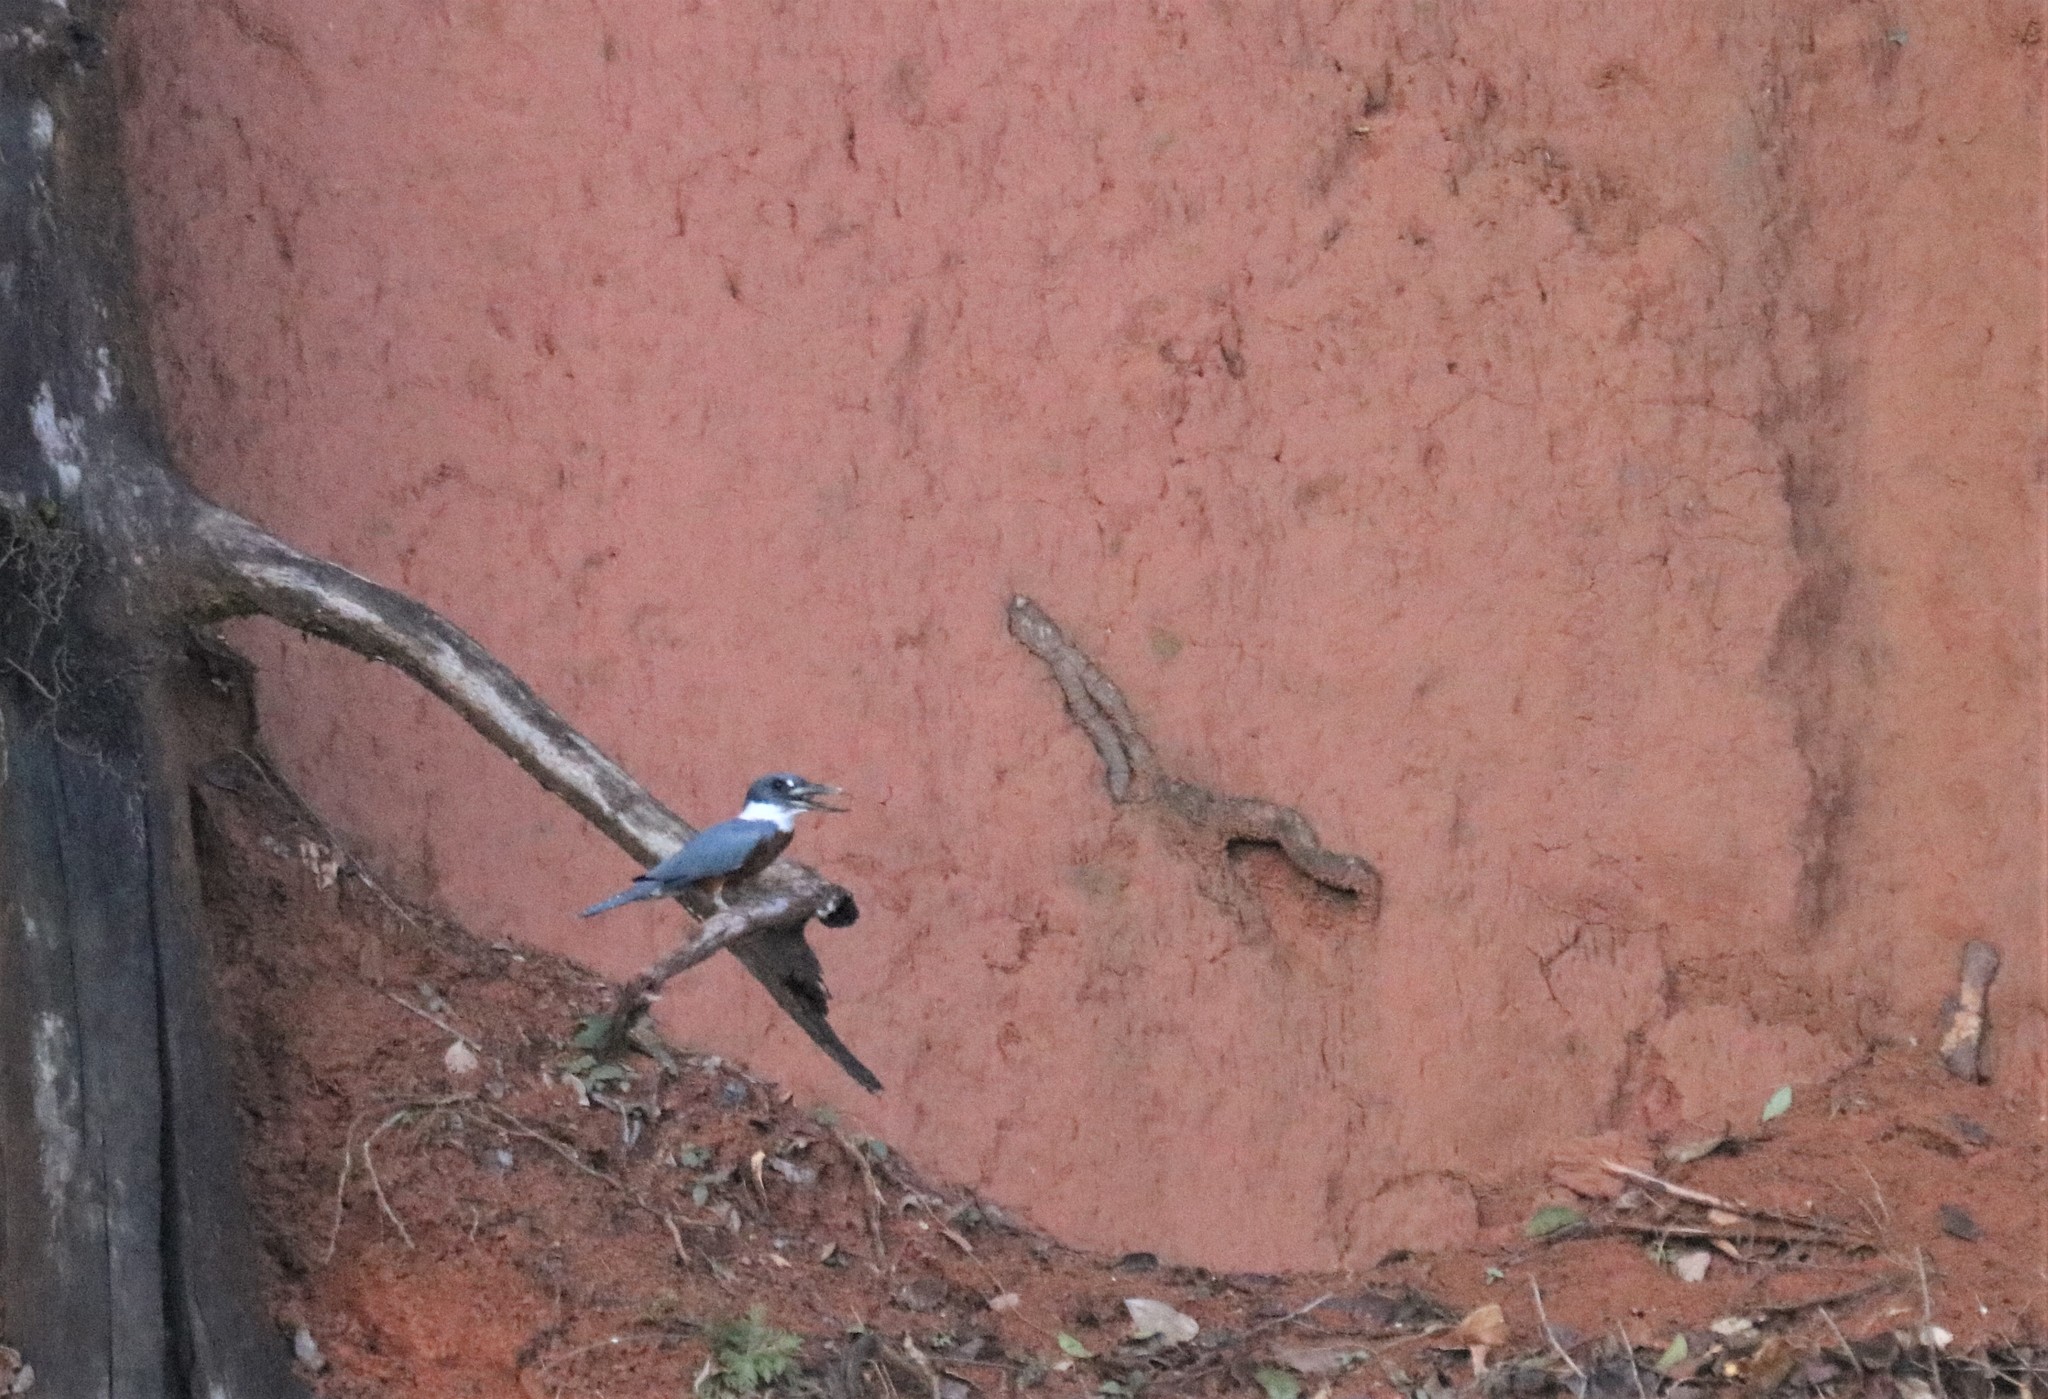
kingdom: Animalia
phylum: Chordata
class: Aves
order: Coraciiformes
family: Alcedinidae
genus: Megaceryle
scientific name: Megaceryle torquata
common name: Ringed kingfisher
